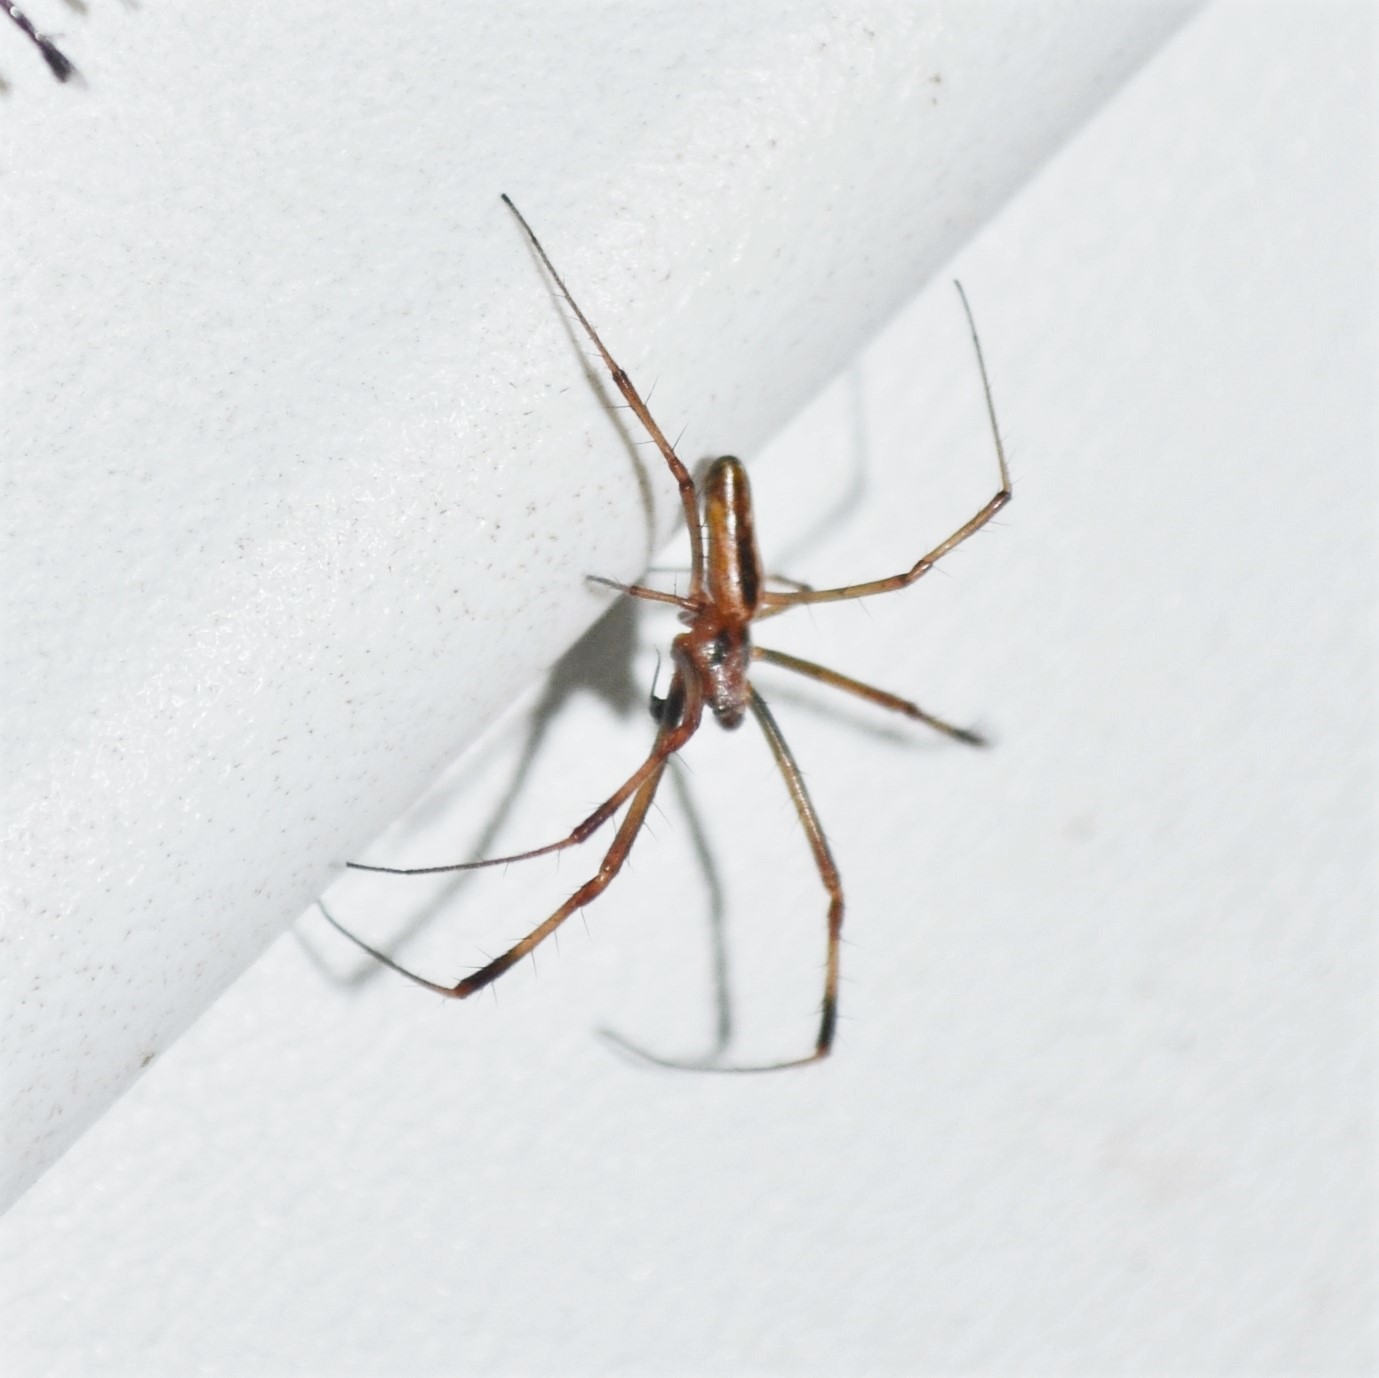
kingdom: Animalia
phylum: Arthropoda
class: Arachnida
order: Araneae
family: Araneidae
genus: Trichonephila
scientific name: Trichonephila clavipes
